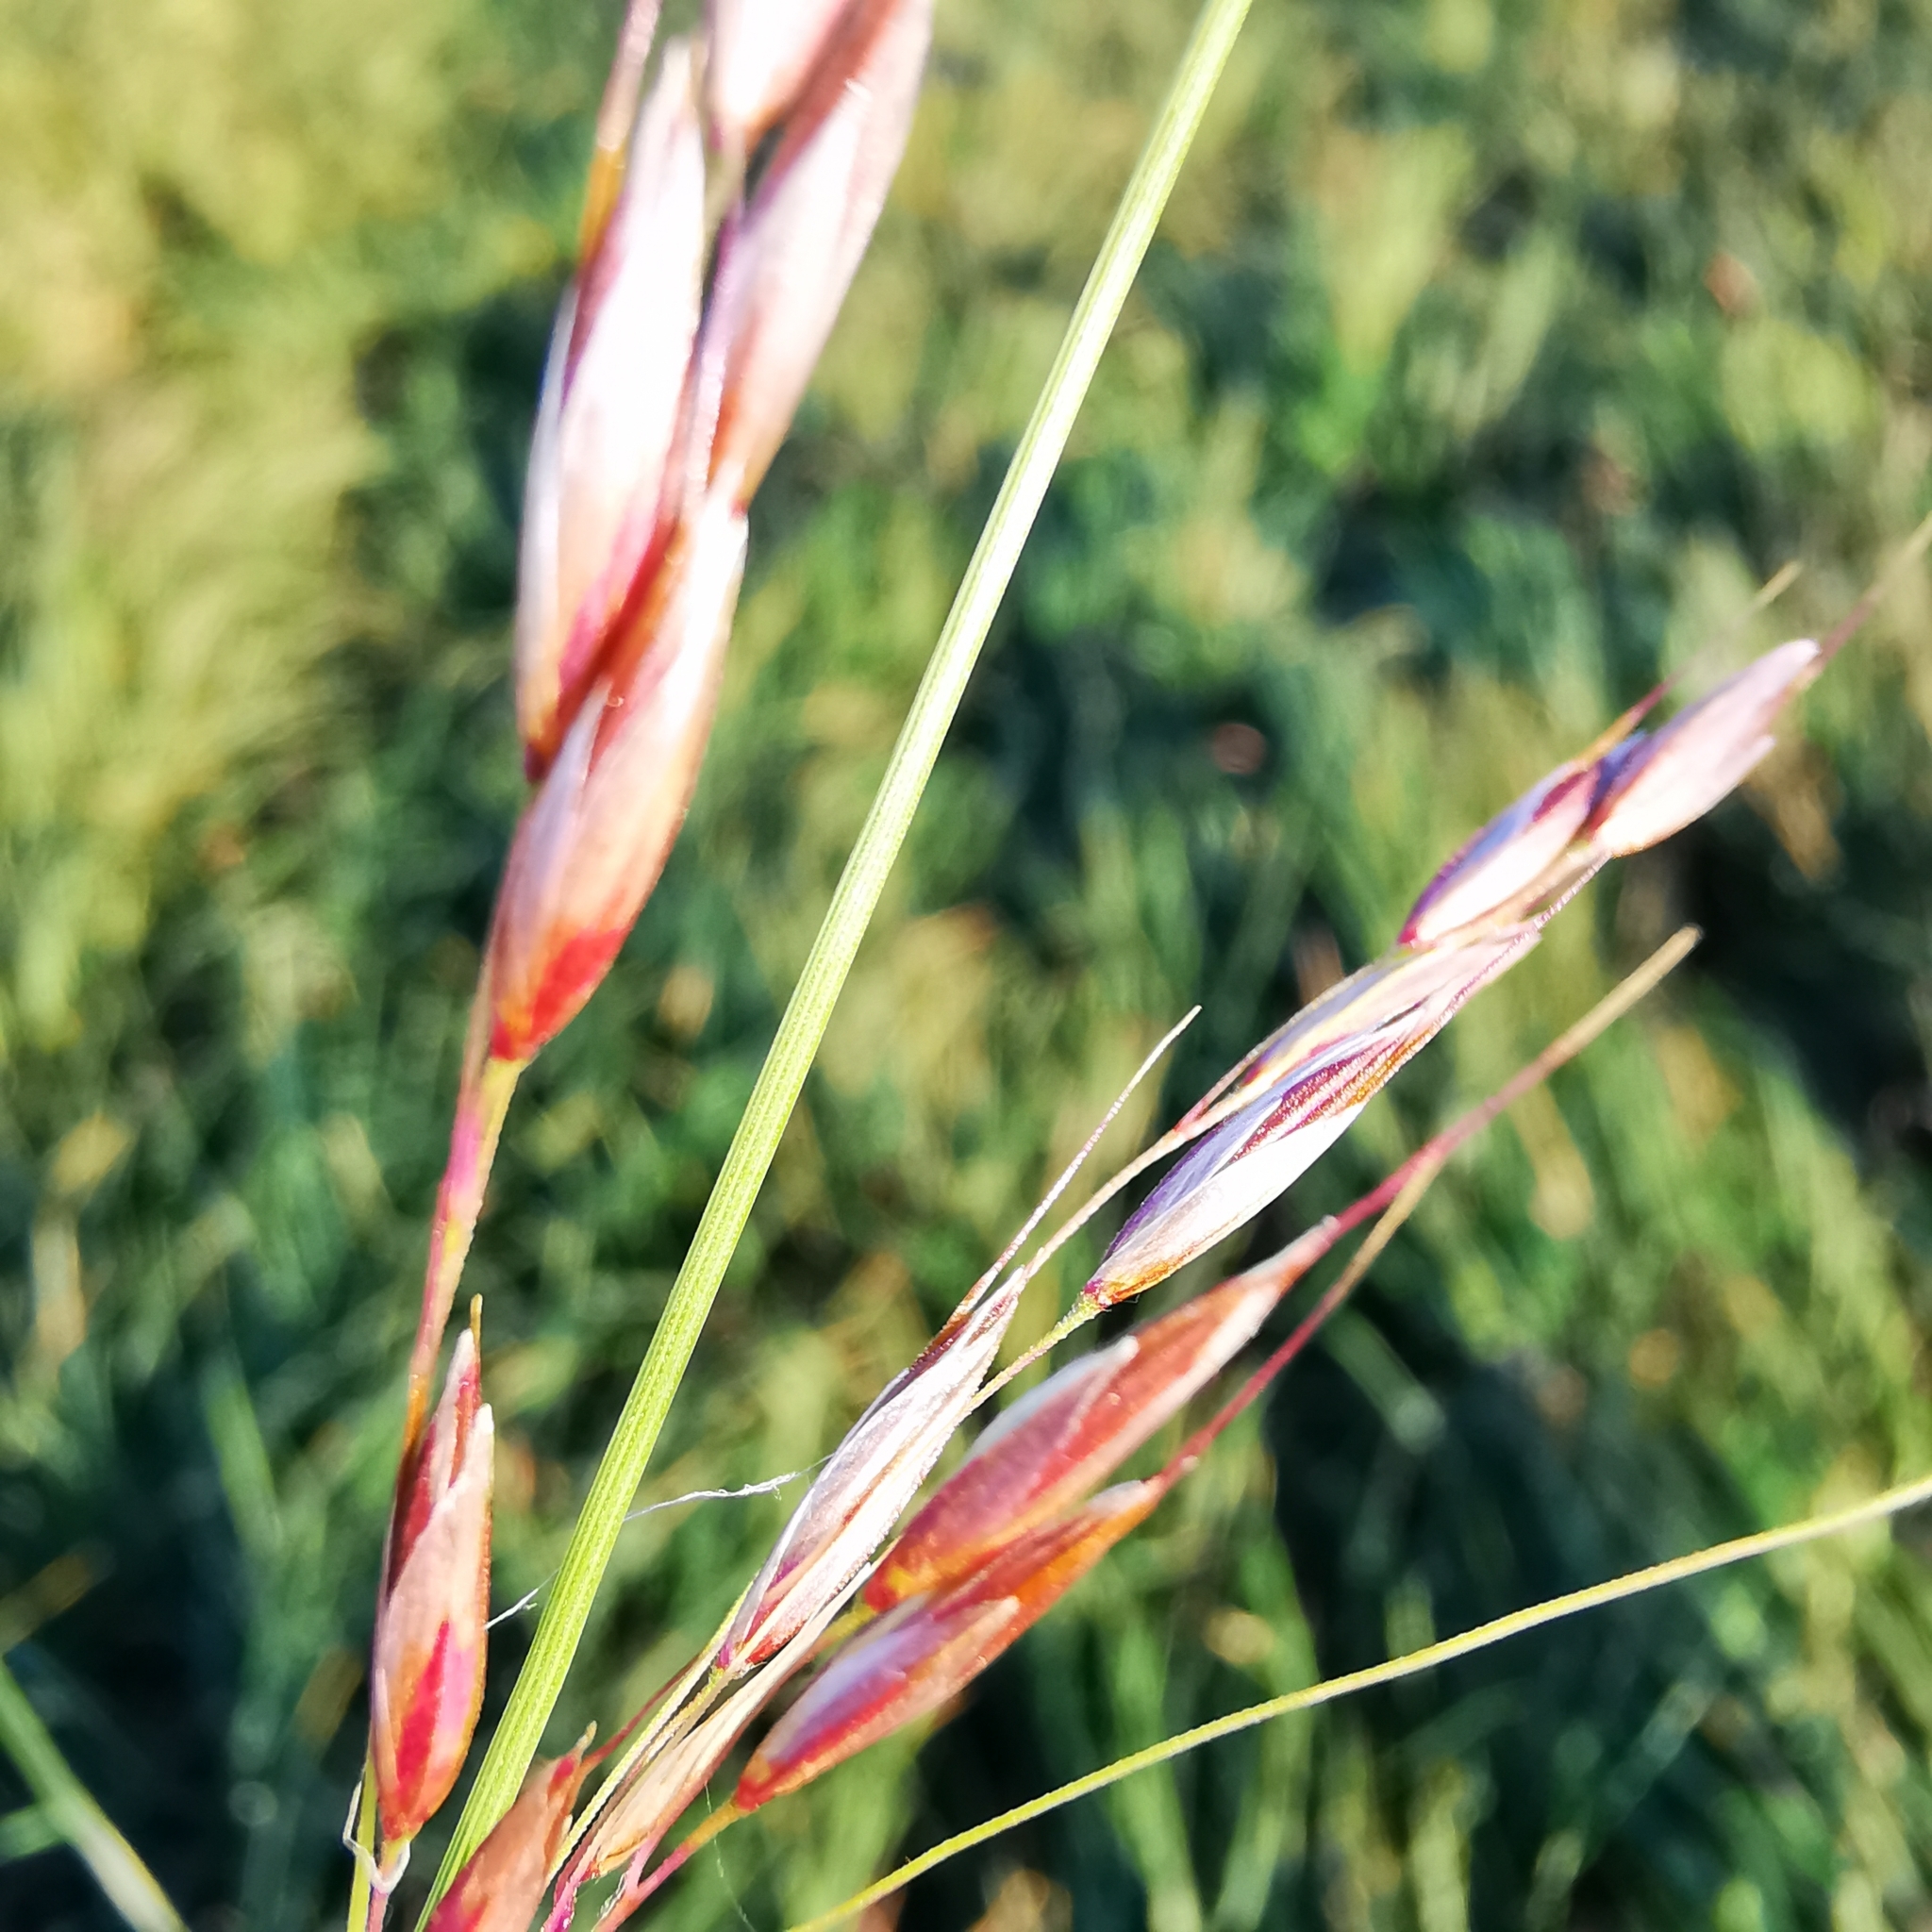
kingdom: Plantae
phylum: Tracheophyta
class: Liliopsida
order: Poales
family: Poaceae
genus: Arrhenatherum
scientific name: Arrhenatherum elatius
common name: Tall oatgrass
